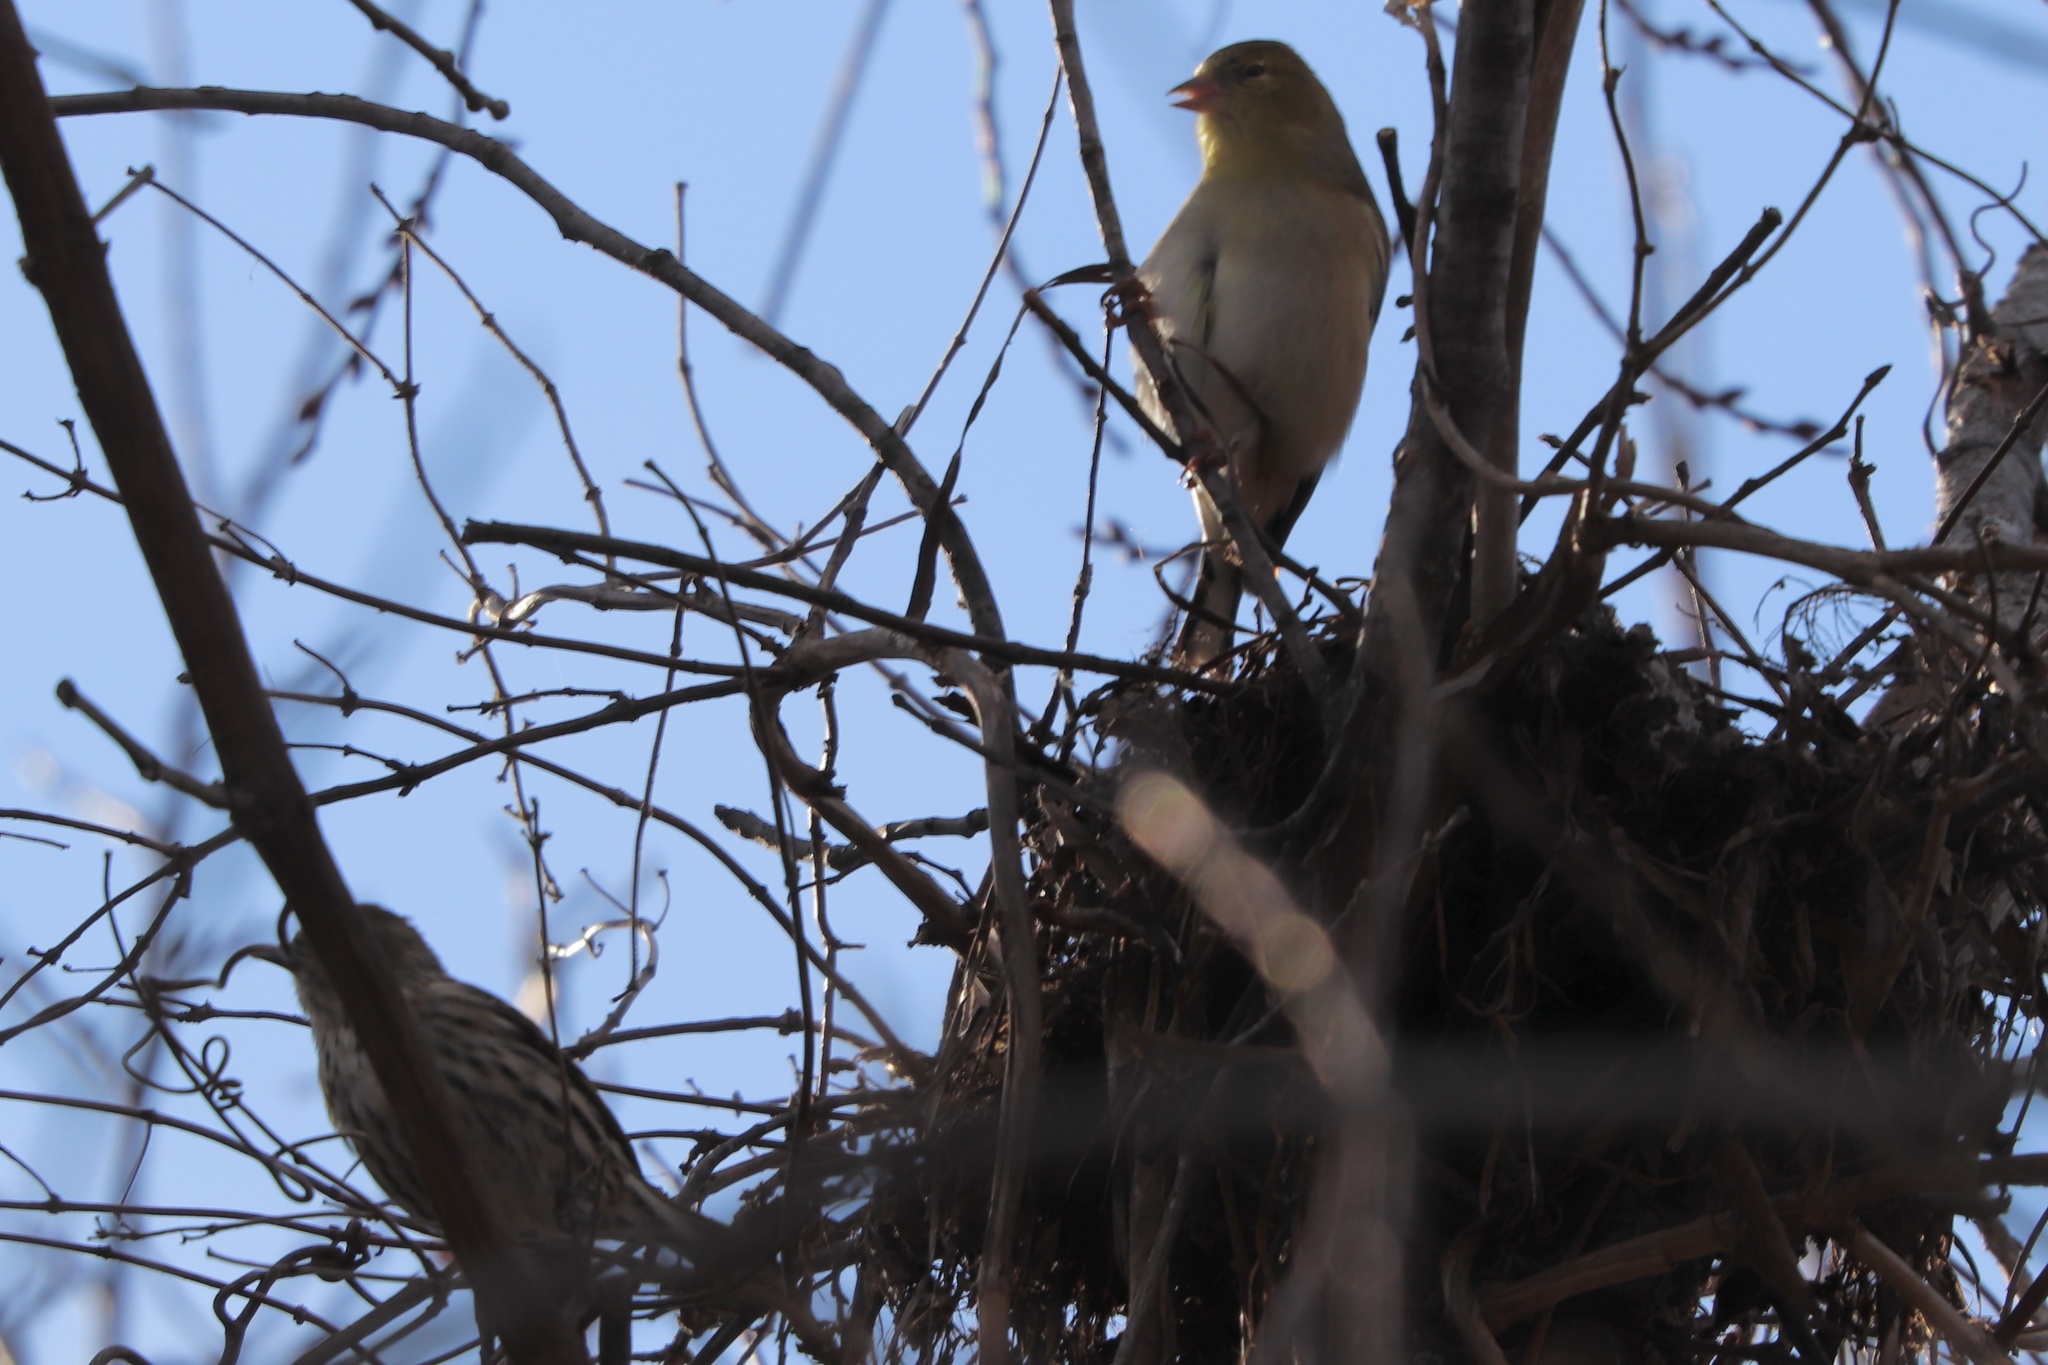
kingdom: Animalia
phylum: Chordata
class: Aves
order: Passeriformes
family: Fringillidae
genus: Spinus
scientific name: Spinus tristis
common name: American goldfinch
